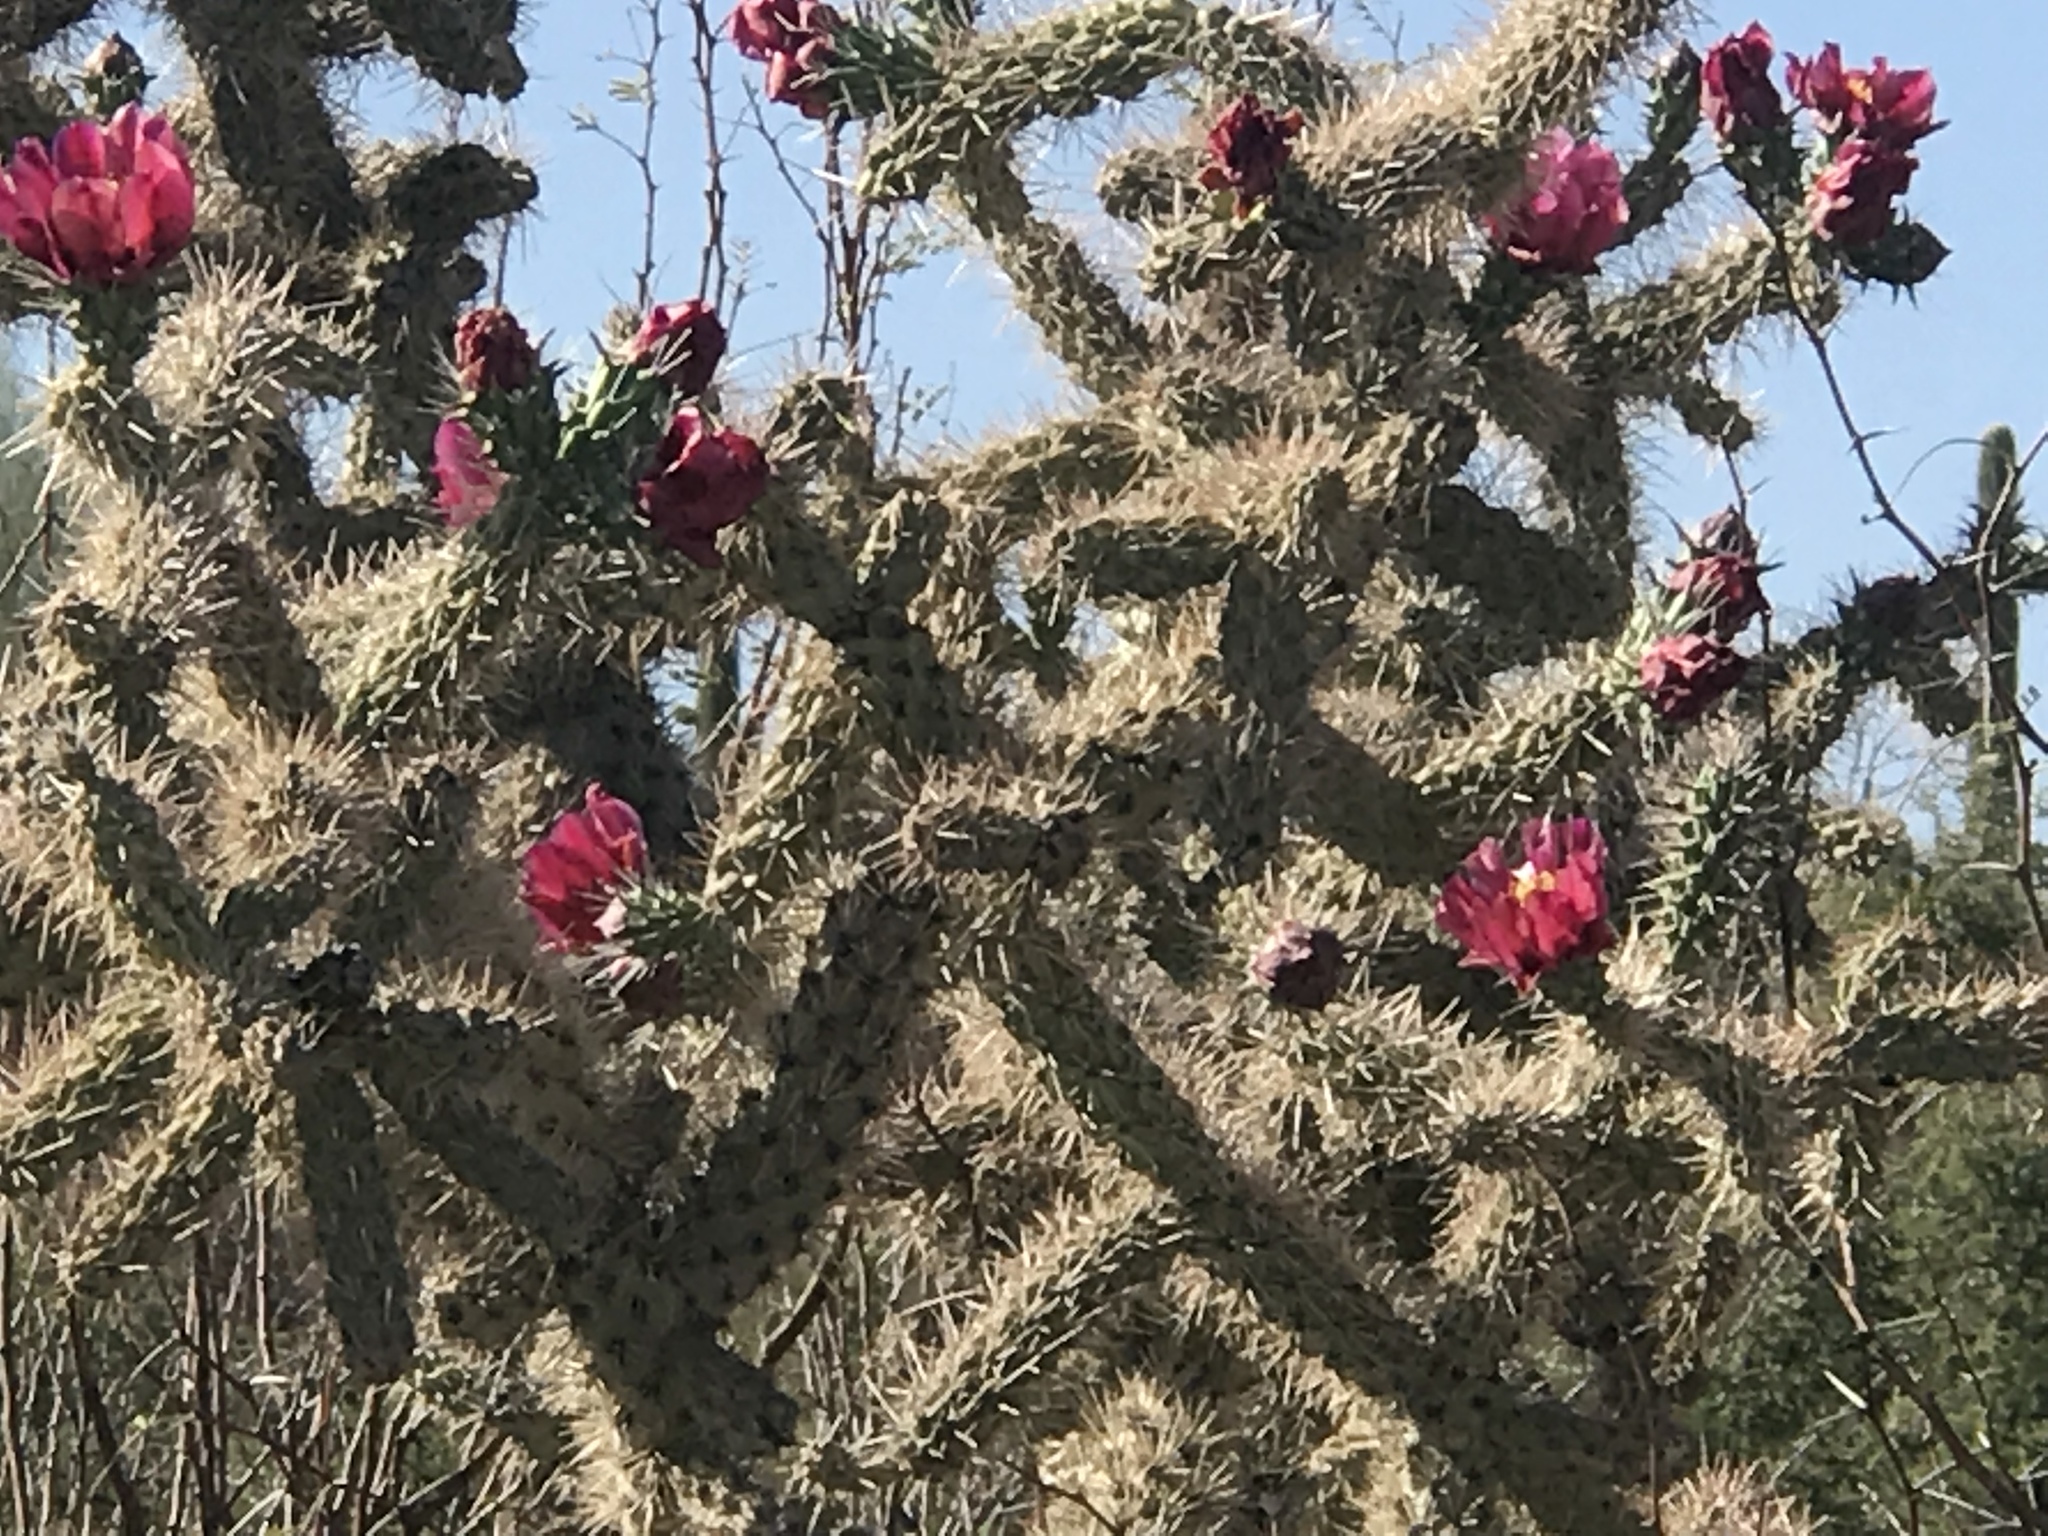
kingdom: Plantae
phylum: Tracheophyta
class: Magnoliopsida
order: Caryophyllales
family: Cactaceae
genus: Cylindropuntia
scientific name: Cylindropuntia imbricata
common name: Candelabrum cactus
